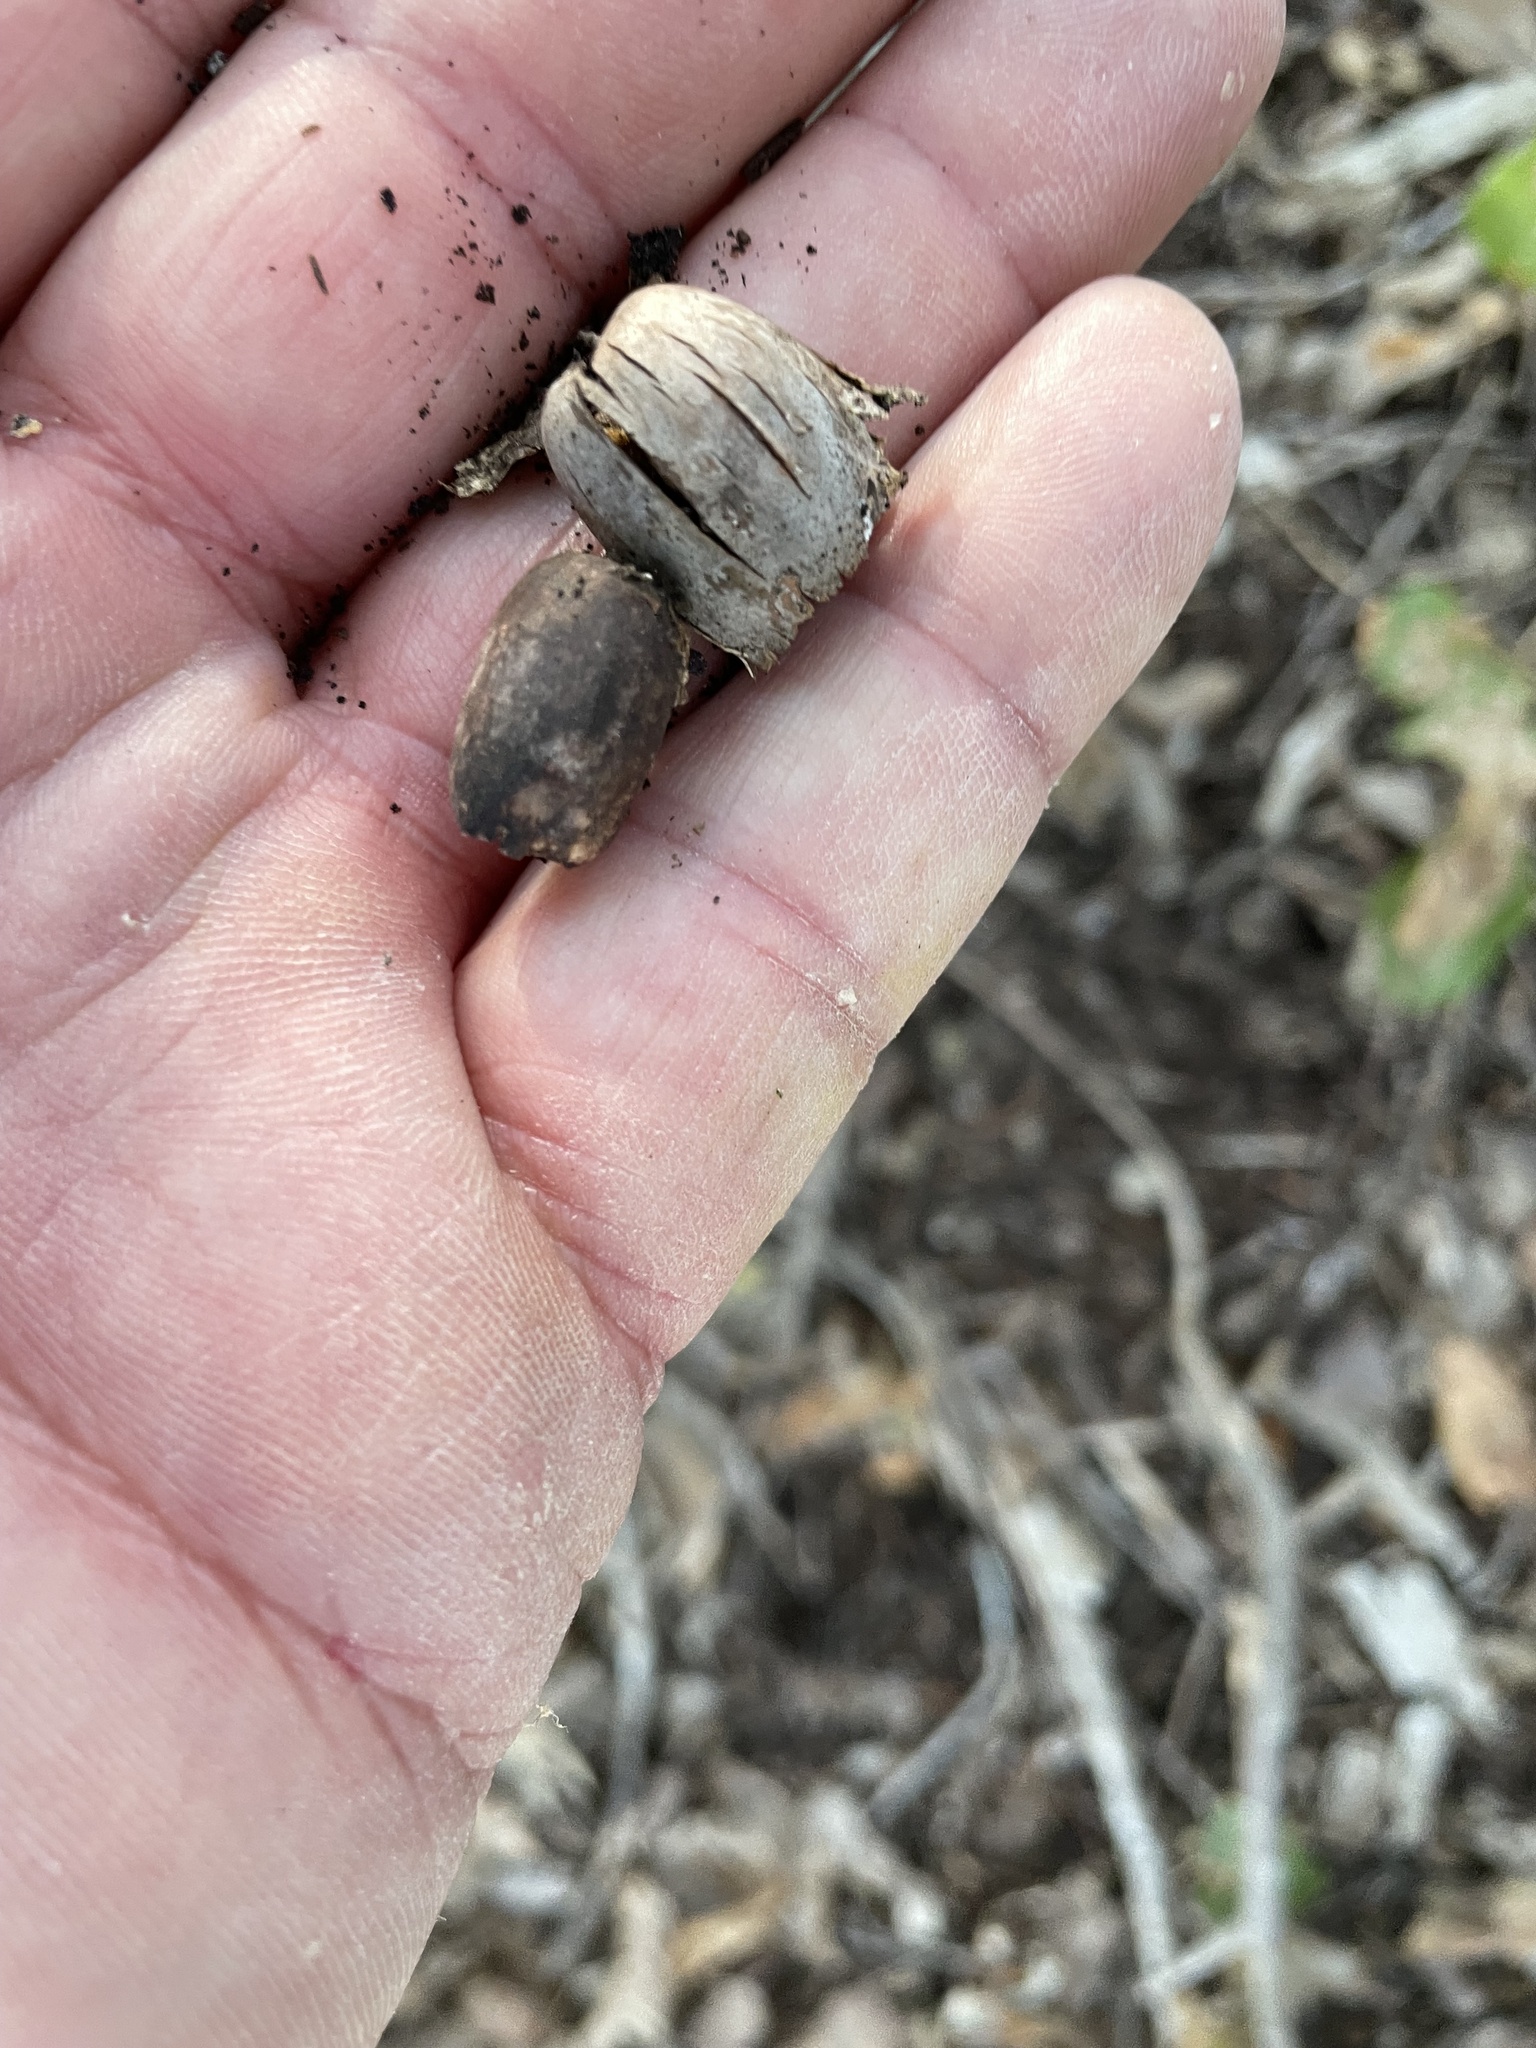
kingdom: Plantae
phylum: Tracheophyta
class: Magnoliopsida
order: Fagales
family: Fagaceae
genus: Quercus
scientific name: Quercus sinuata
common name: Durand oak
